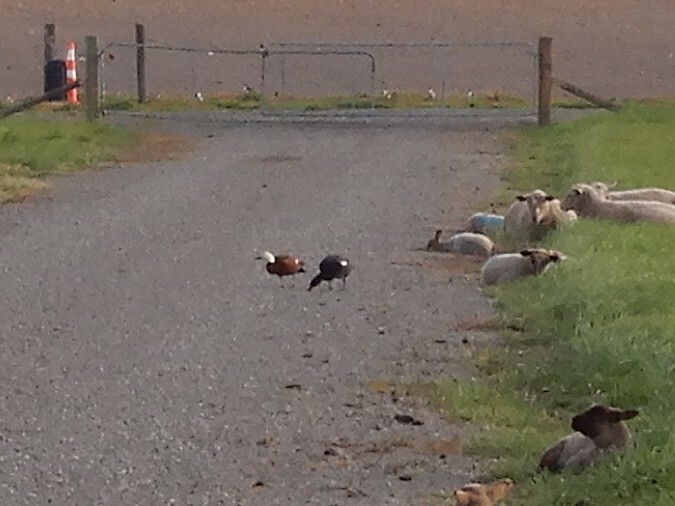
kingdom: Animalia
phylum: Chordata
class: Aves
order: Anseriformes
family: Anatidae
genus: Tadorna
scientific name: Tadorna variegata
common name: Paradise shelduck
